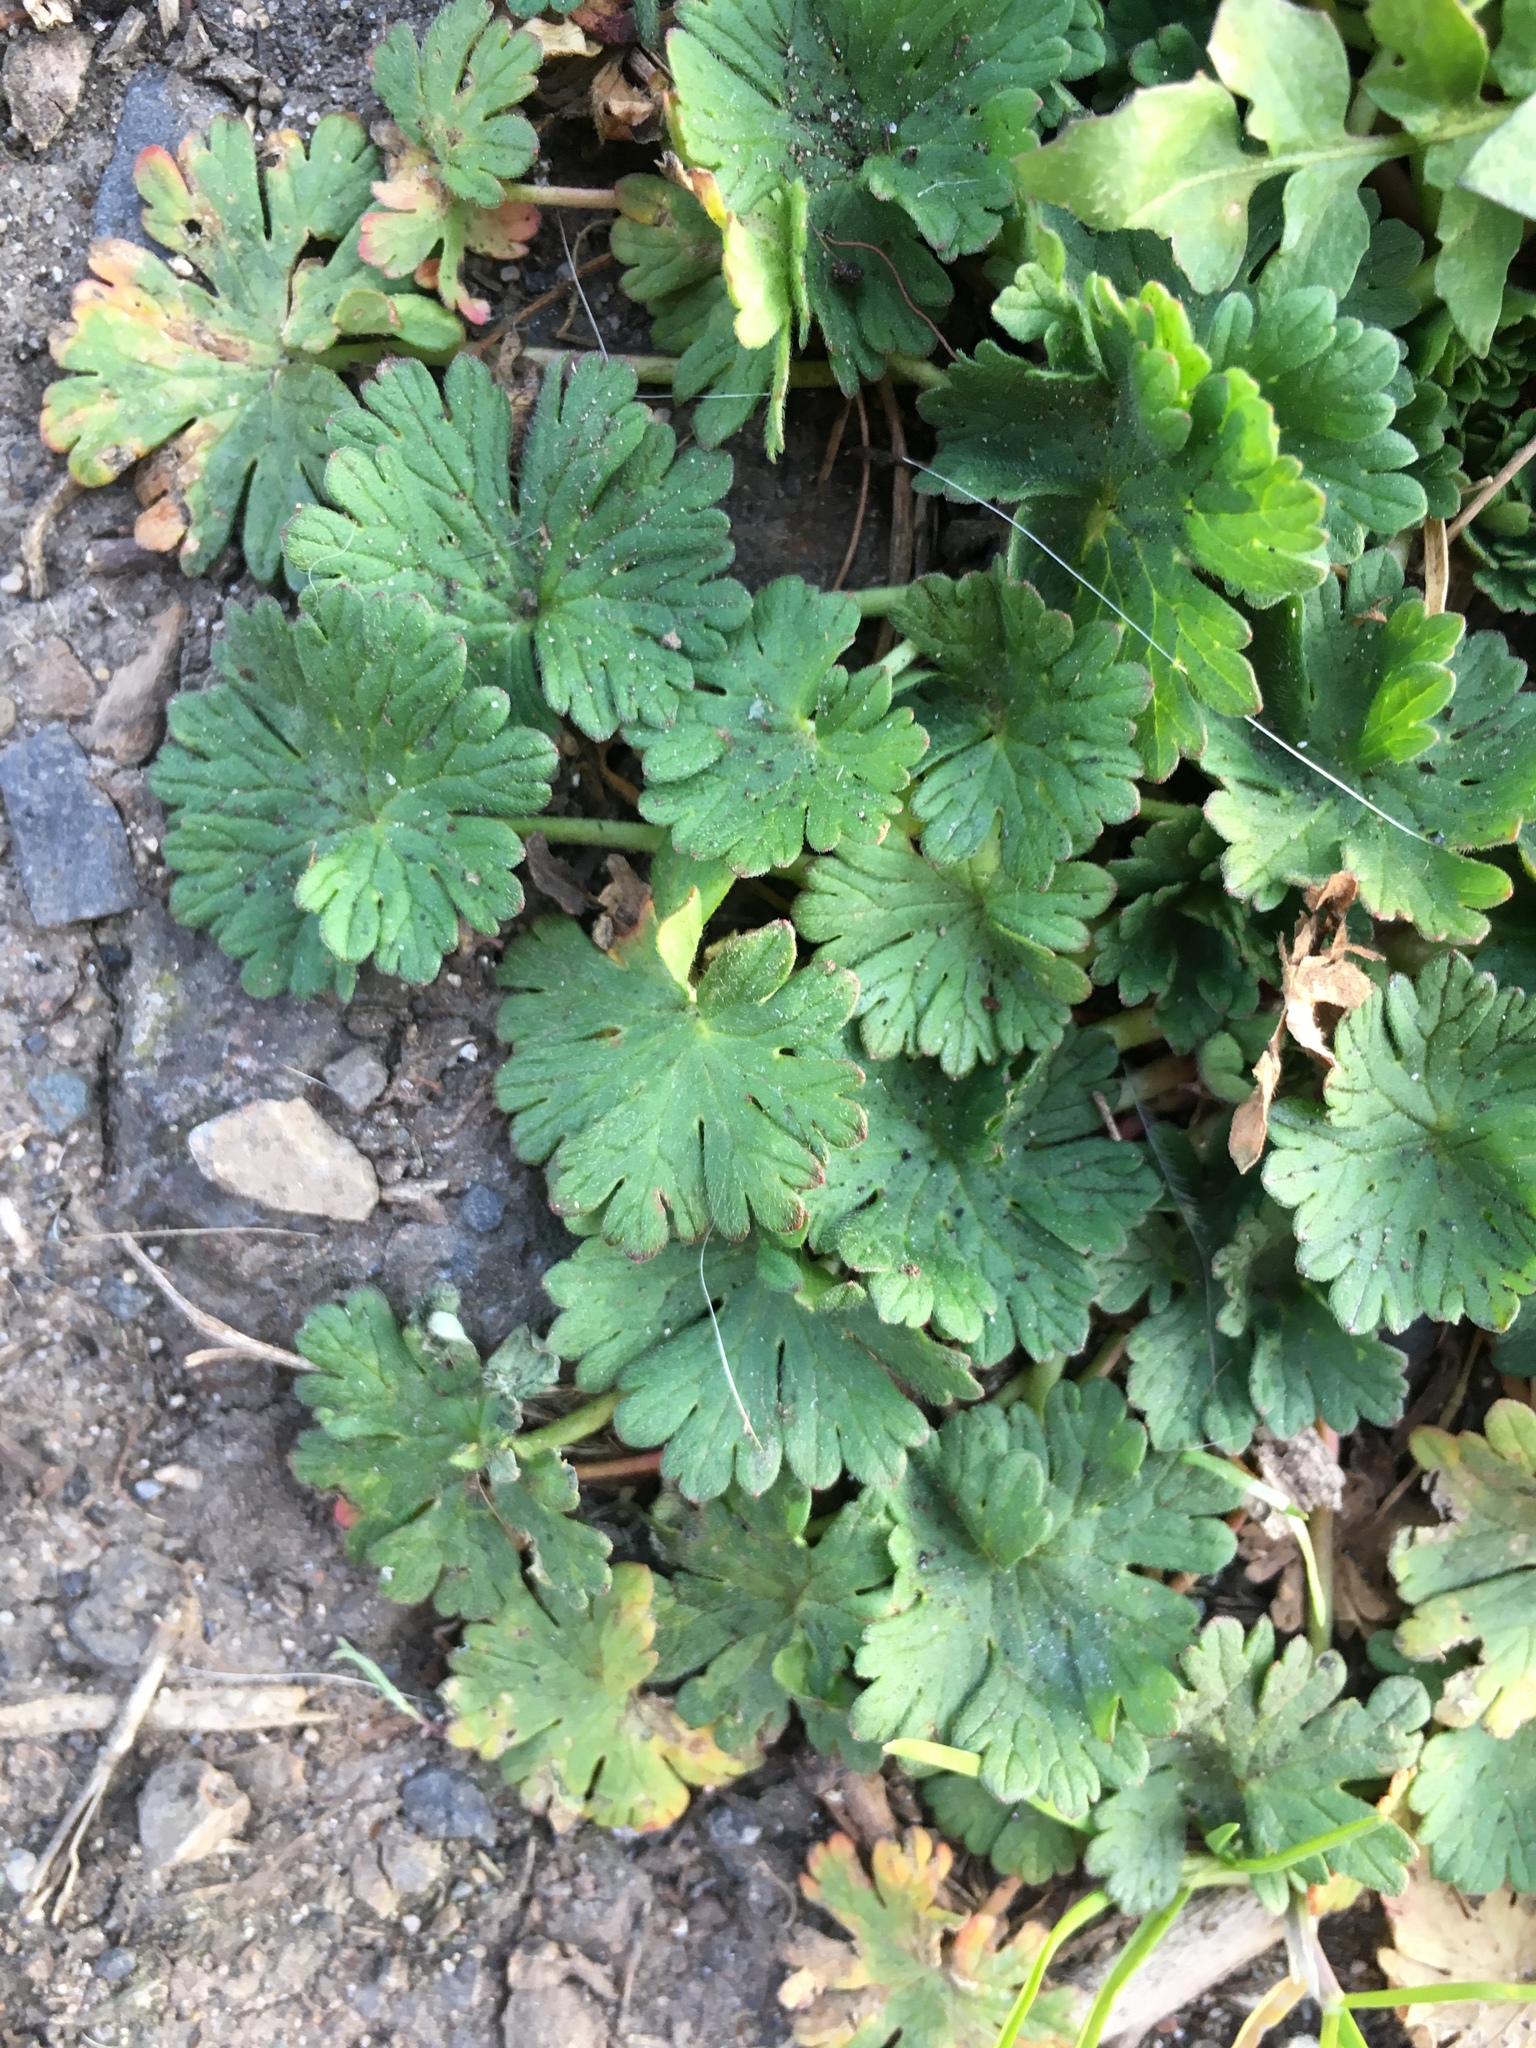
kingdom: Plantae
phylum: Tracheophyta
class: Magnoliopsida
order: Geraniales
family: Geraniaceae
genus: Geranium
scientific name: Geranium pusillum
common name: Small geranium
